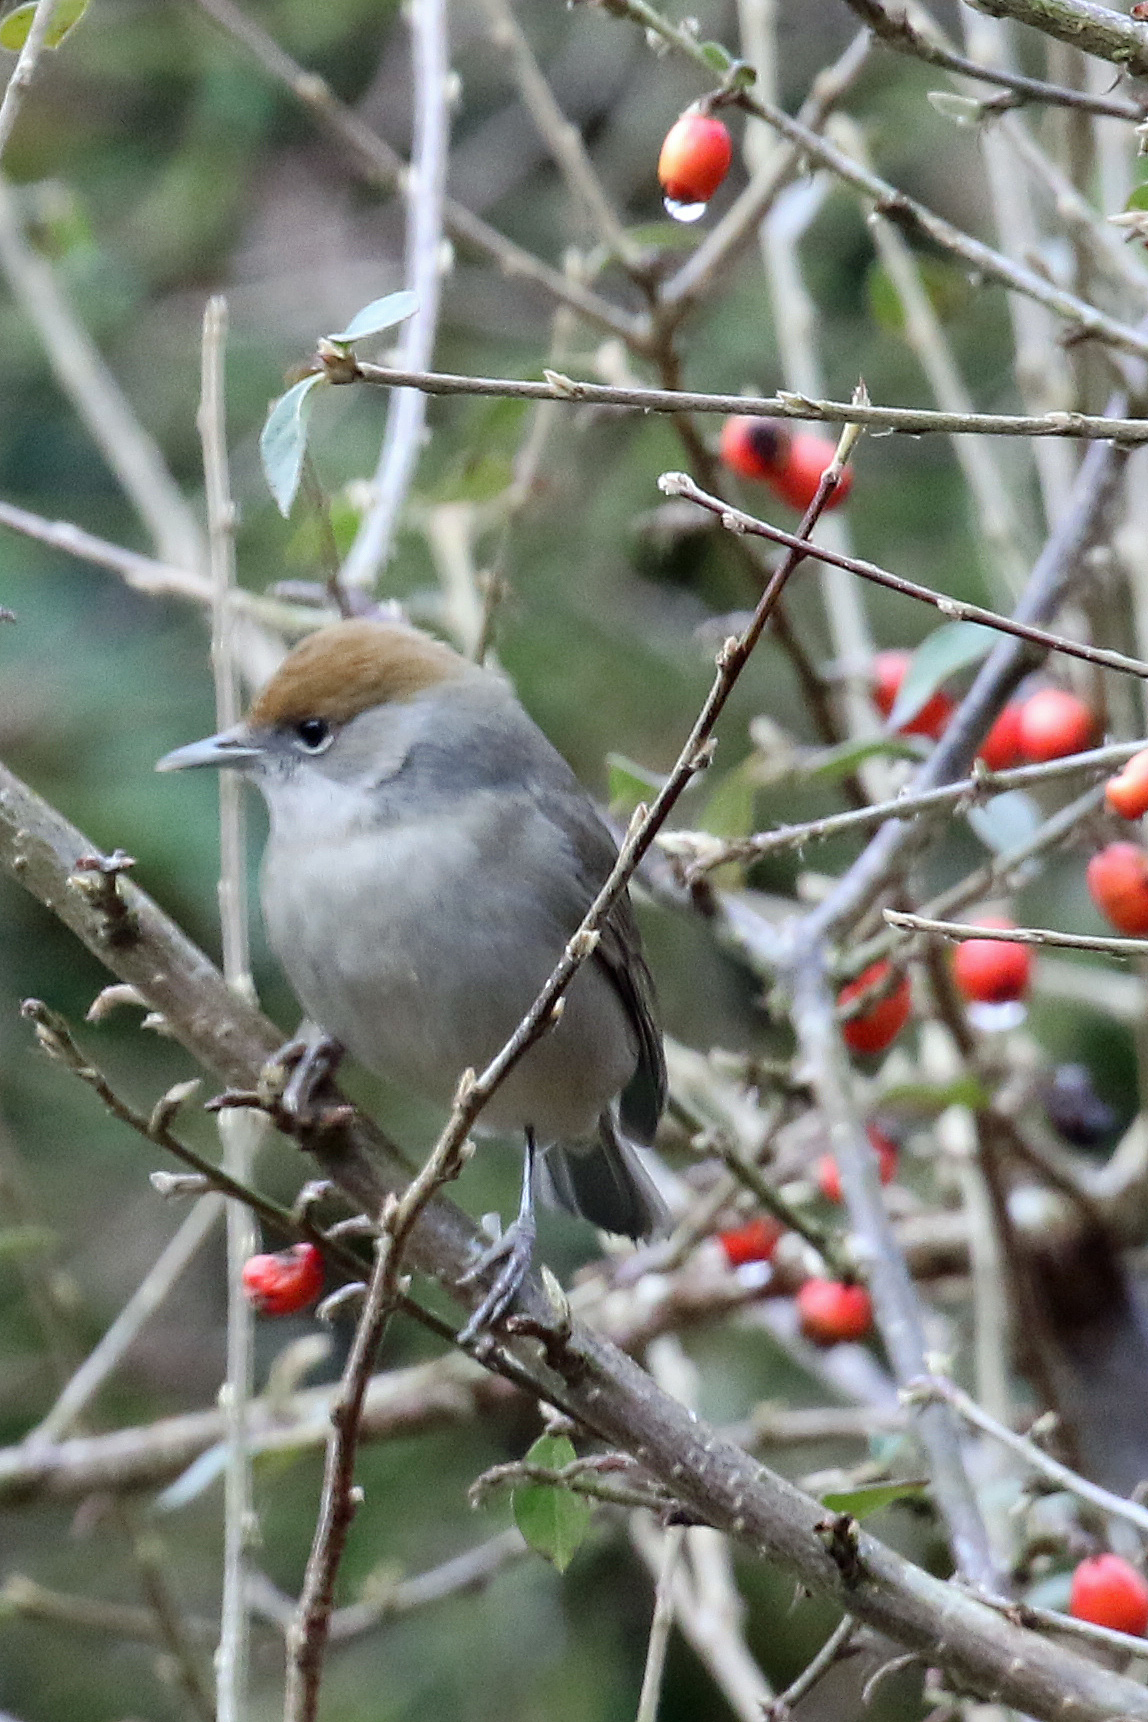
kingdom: Animalia
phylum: Chordata
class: Aves
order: Passeriformes
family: Sylviidae
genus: Sylvia
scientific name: Sylvia atricapilla
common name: Eurasian blackcap
